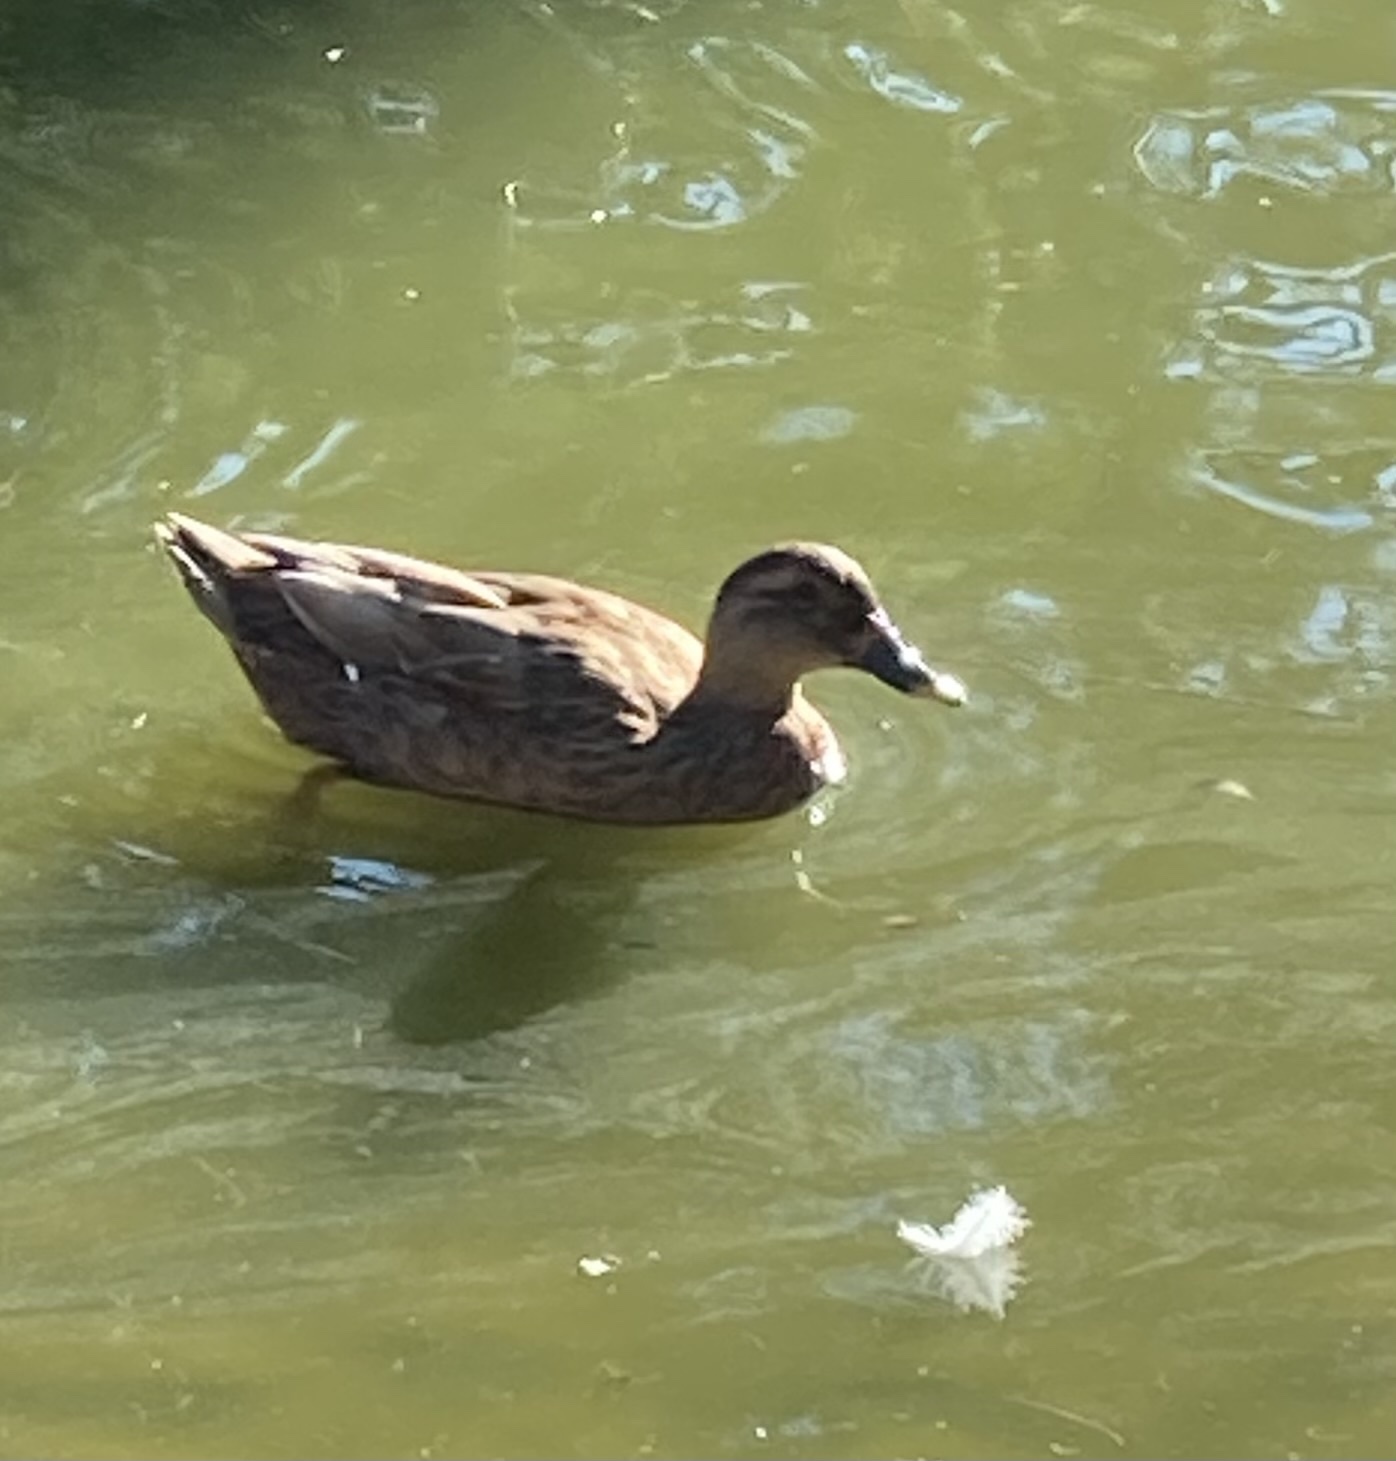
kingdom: Animalia
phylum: Chordata
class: Aves
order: Anseriformes
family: Anatidae
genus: Anas
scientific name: Anas platyrhynchos
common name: Mallard
